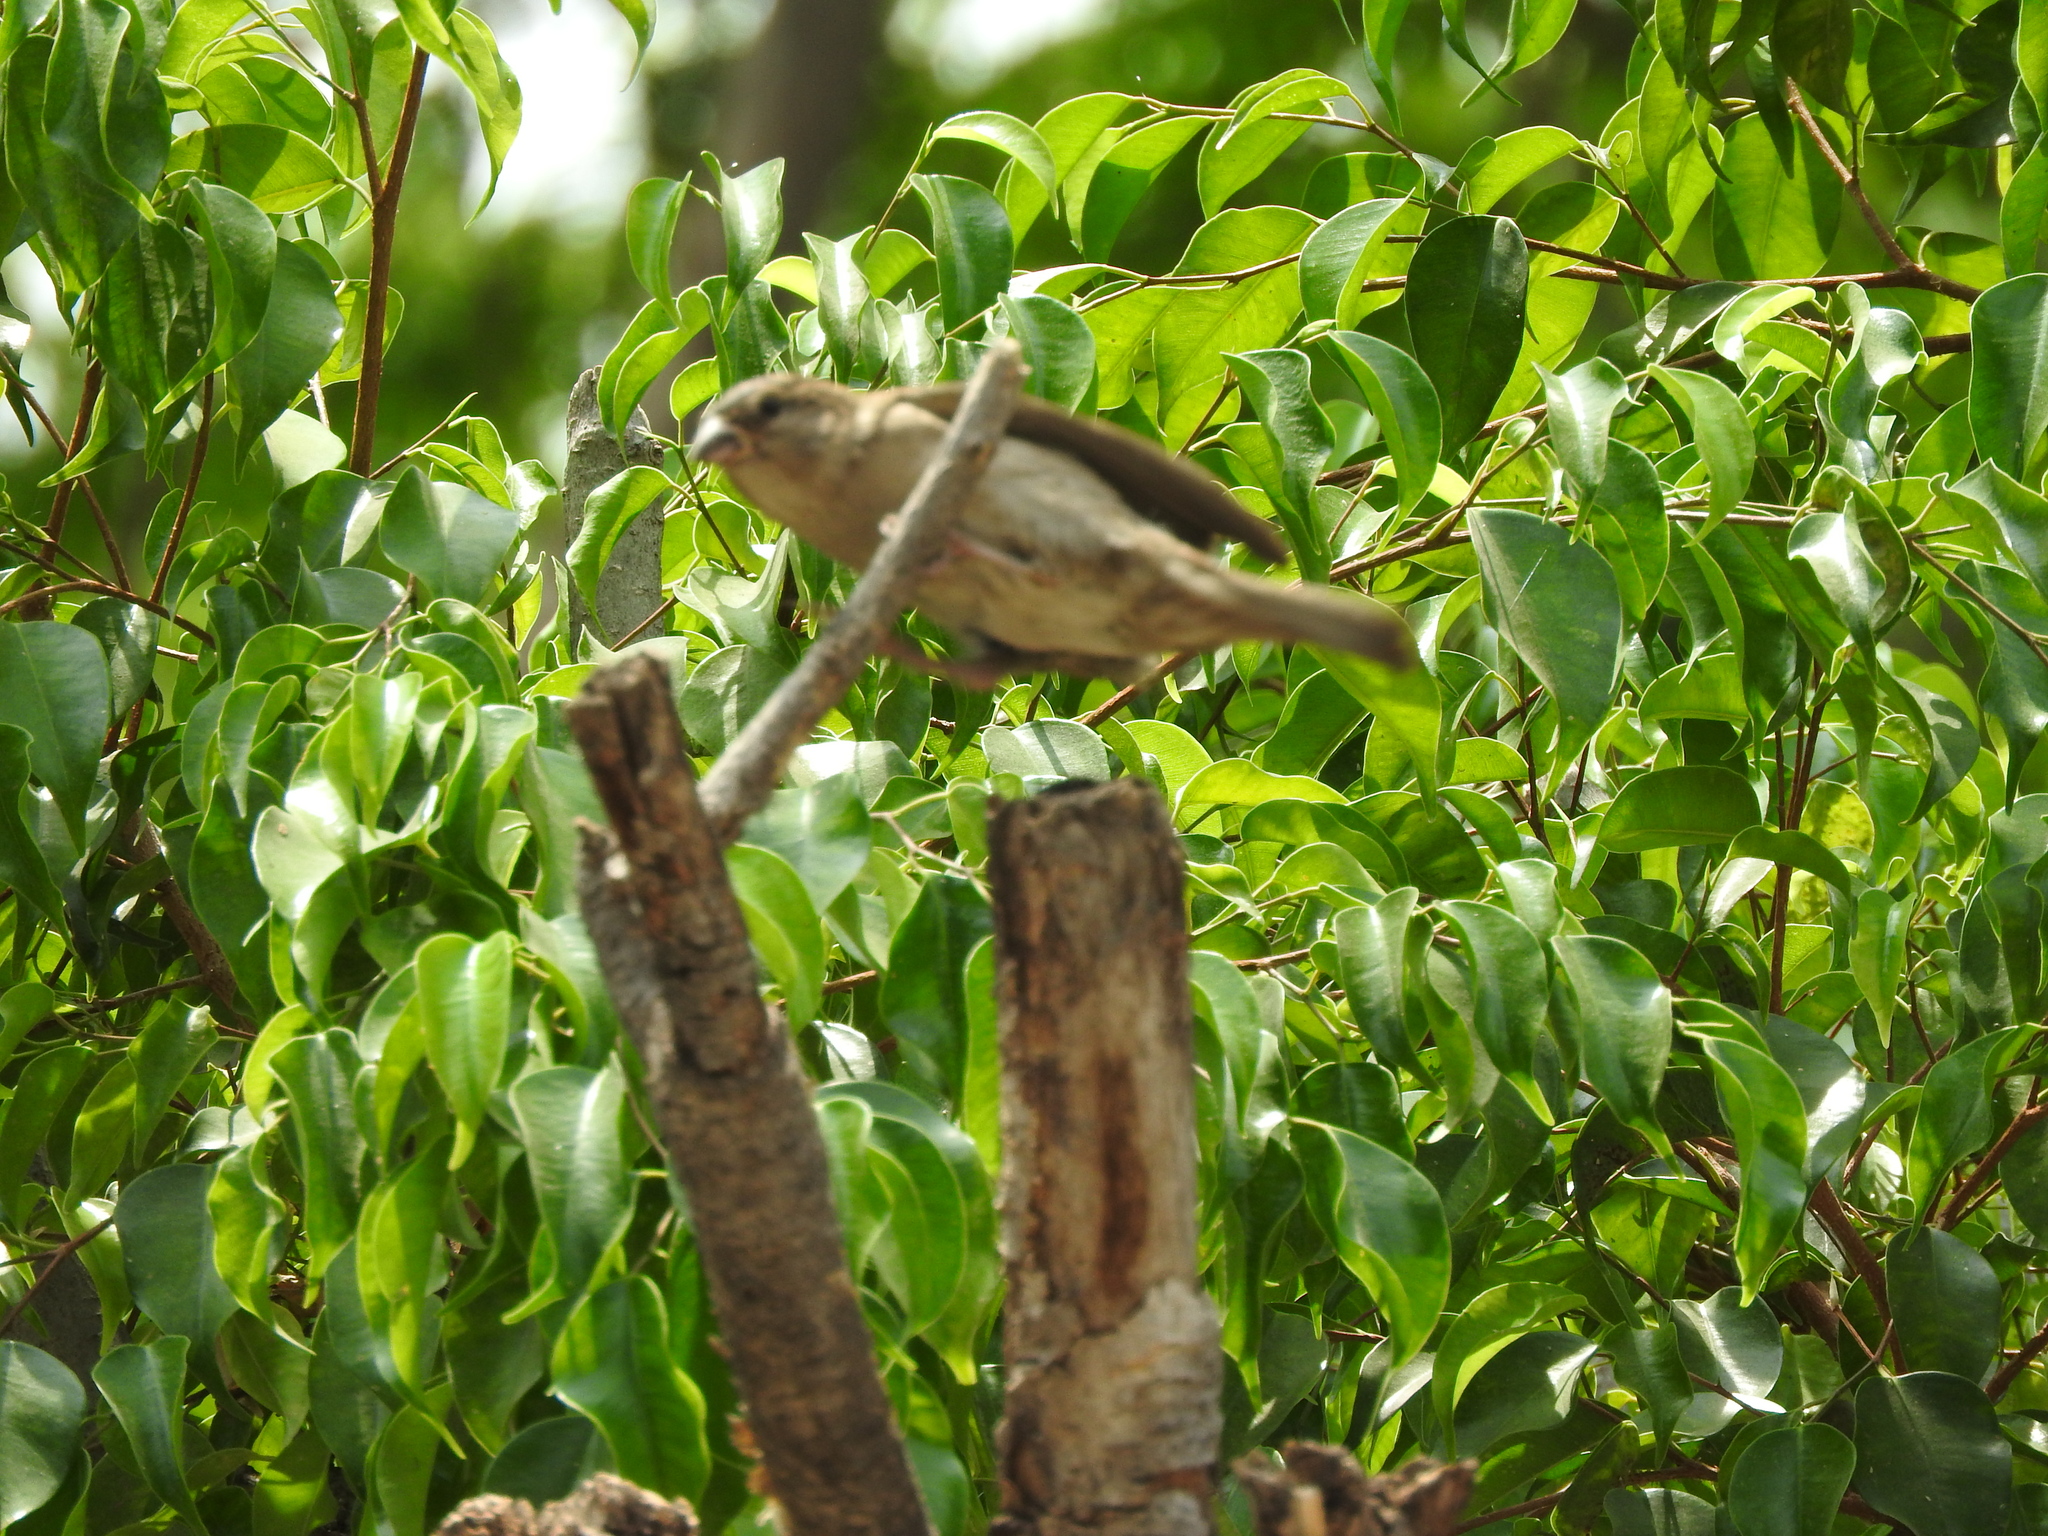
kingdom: Animalia
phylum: Chordata
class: Aves
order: Passeriformes
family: Passeridae
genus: Passer
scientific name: Passer domesticus
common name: House sparrow
